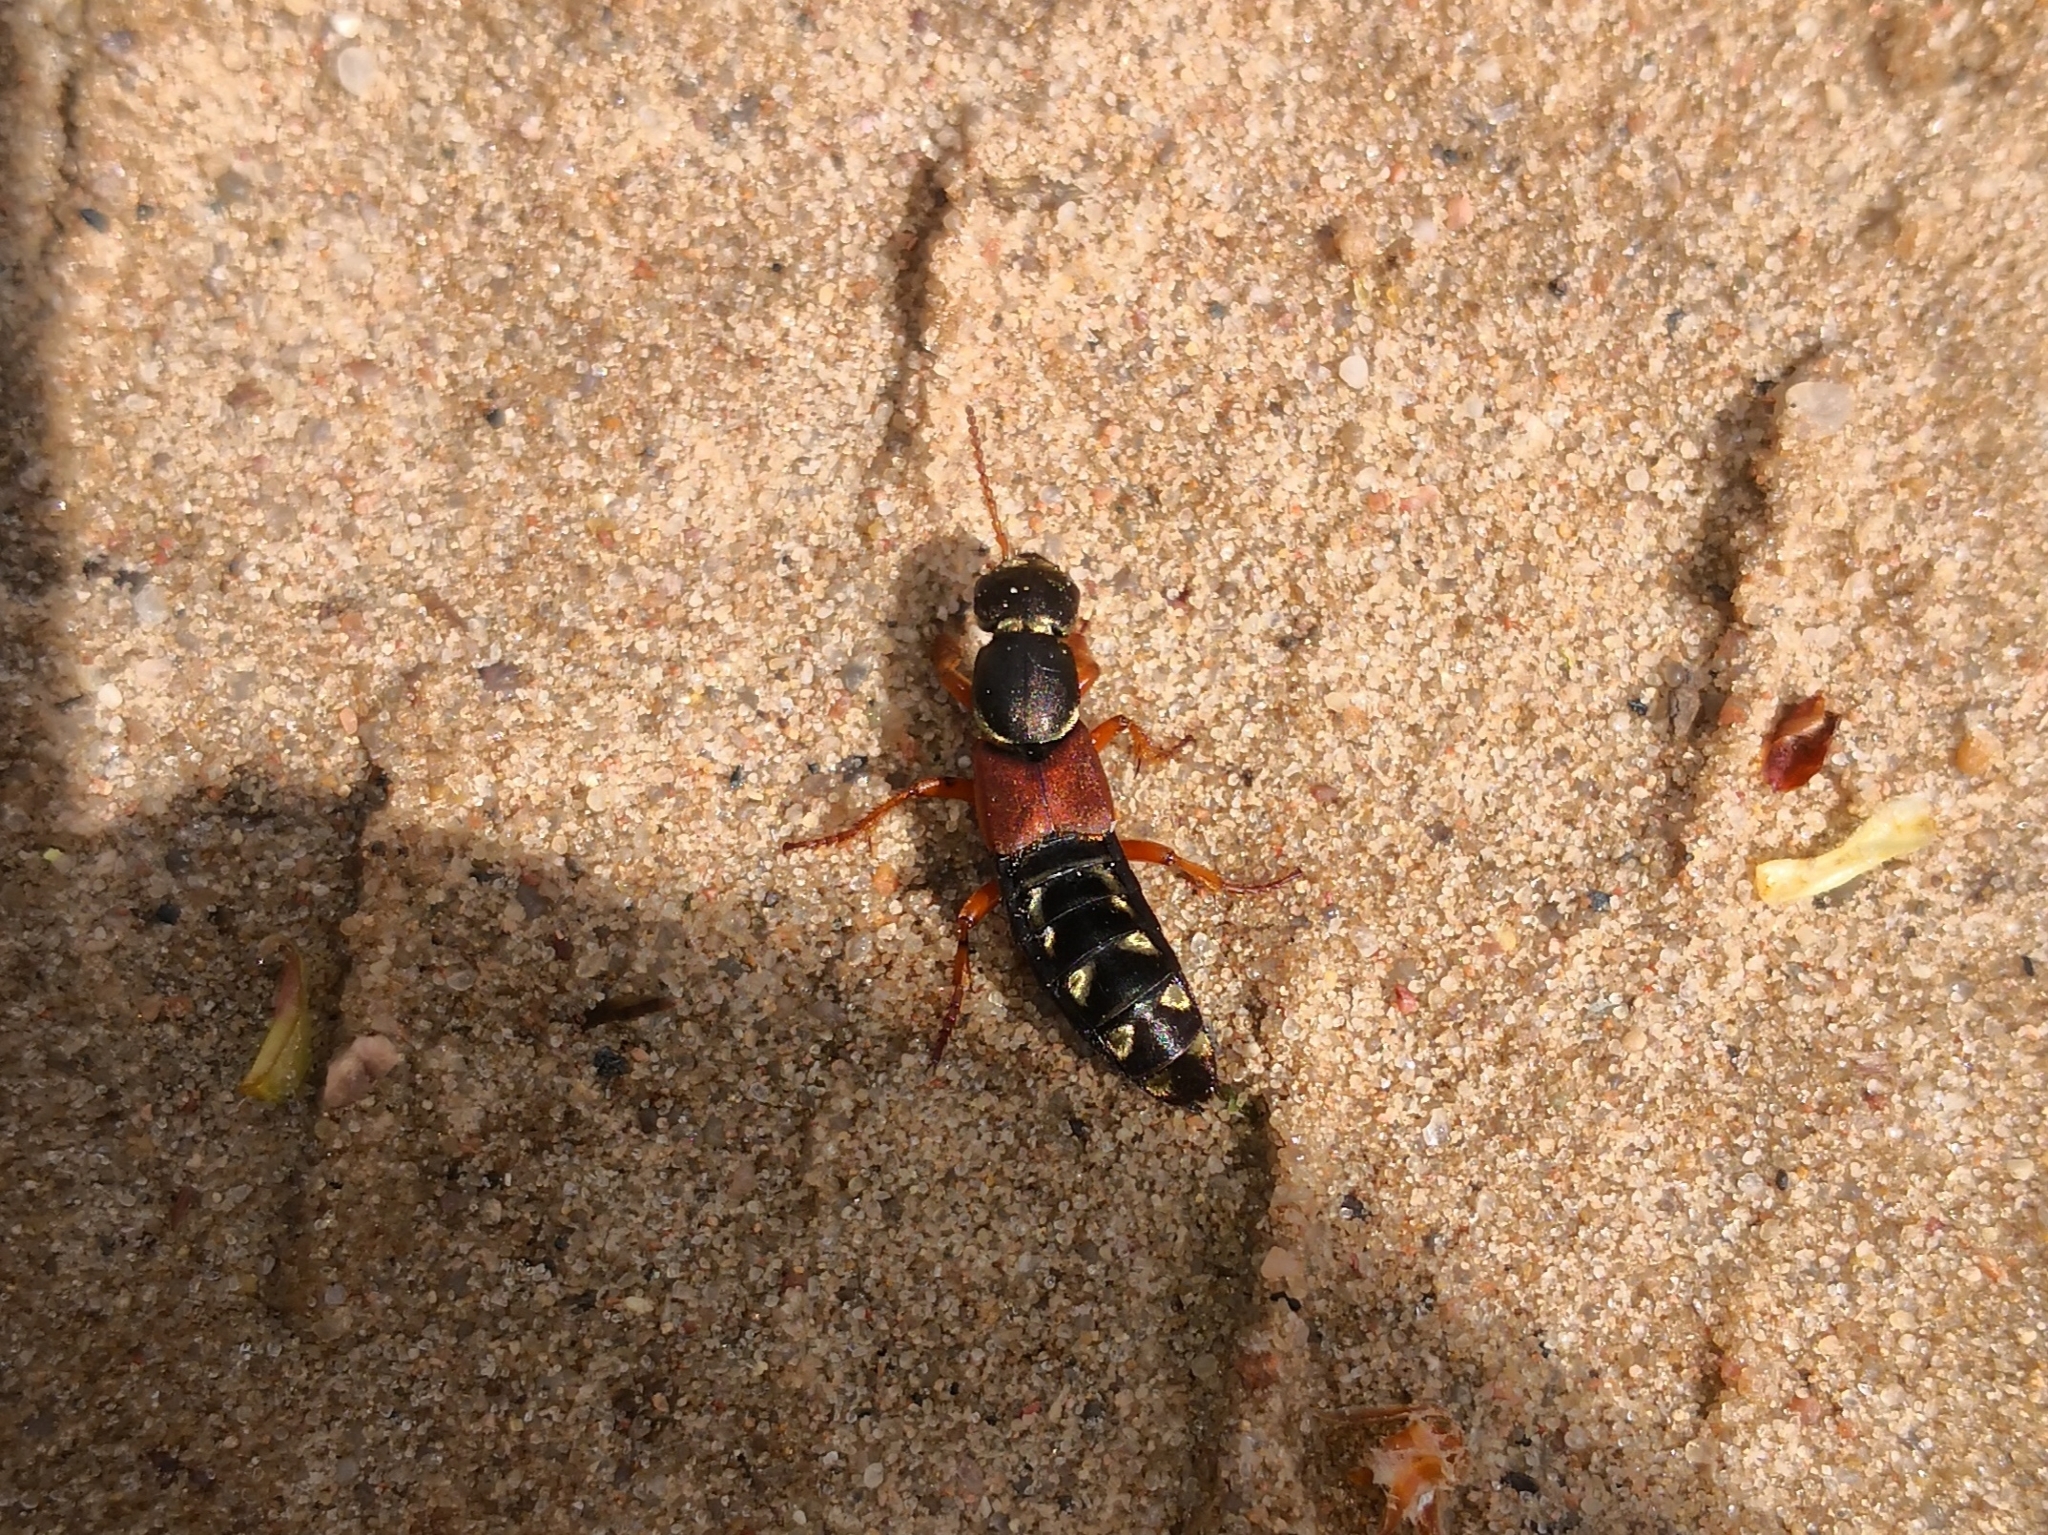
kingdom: Animalia
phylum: Arthropoda
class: Insecta
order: Coleoptera
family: Staphylinidae
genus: Staphylinus
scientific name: Staphylinus caesareus
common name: Staph beetle
